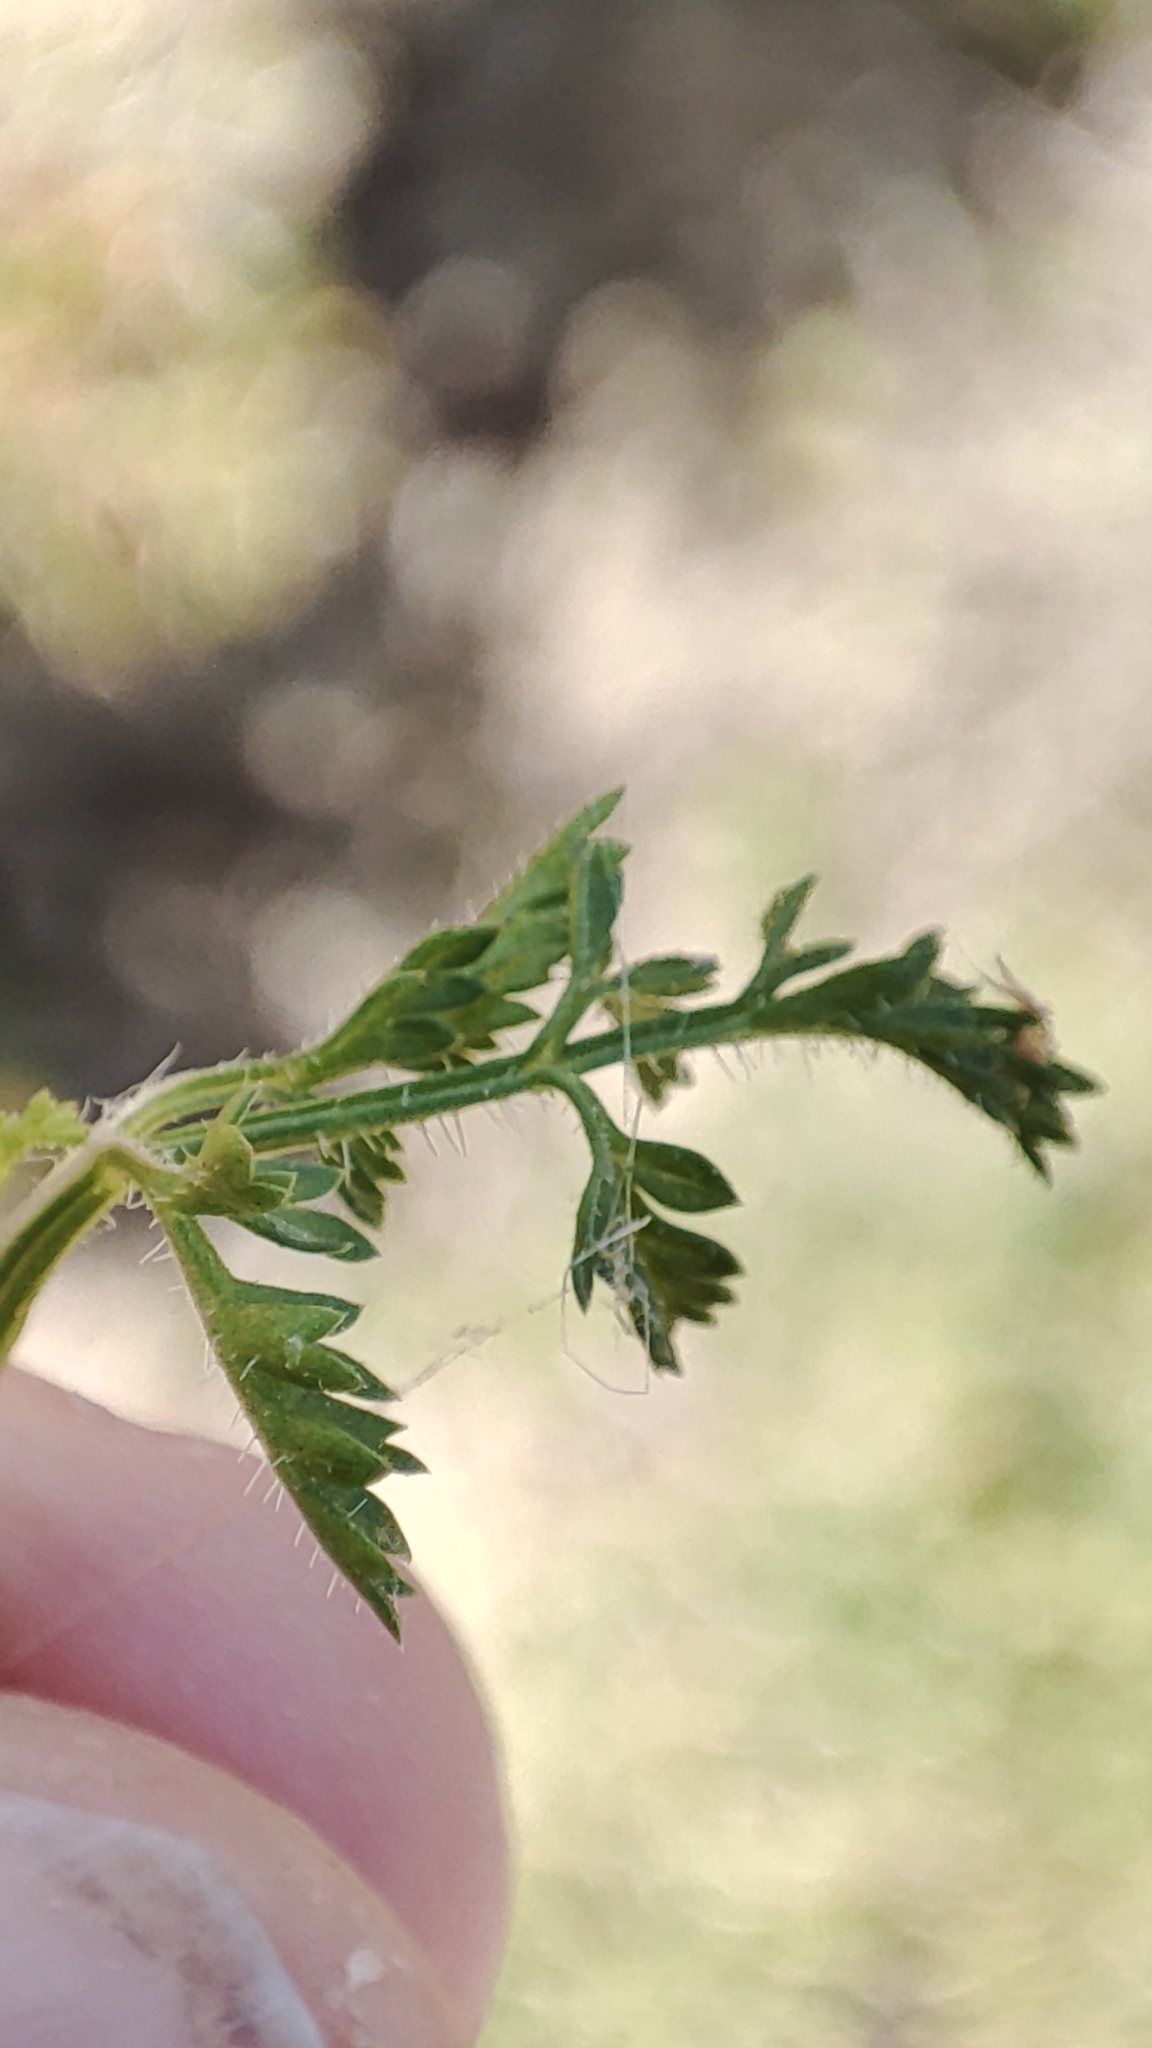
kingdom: Plantae
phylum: Tracheophyta
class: Magnoliopsida
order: Apiales
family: Apiaceae
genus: Orlaya
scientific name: Orlaya daucoides
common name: Flat-fruit orlaya
